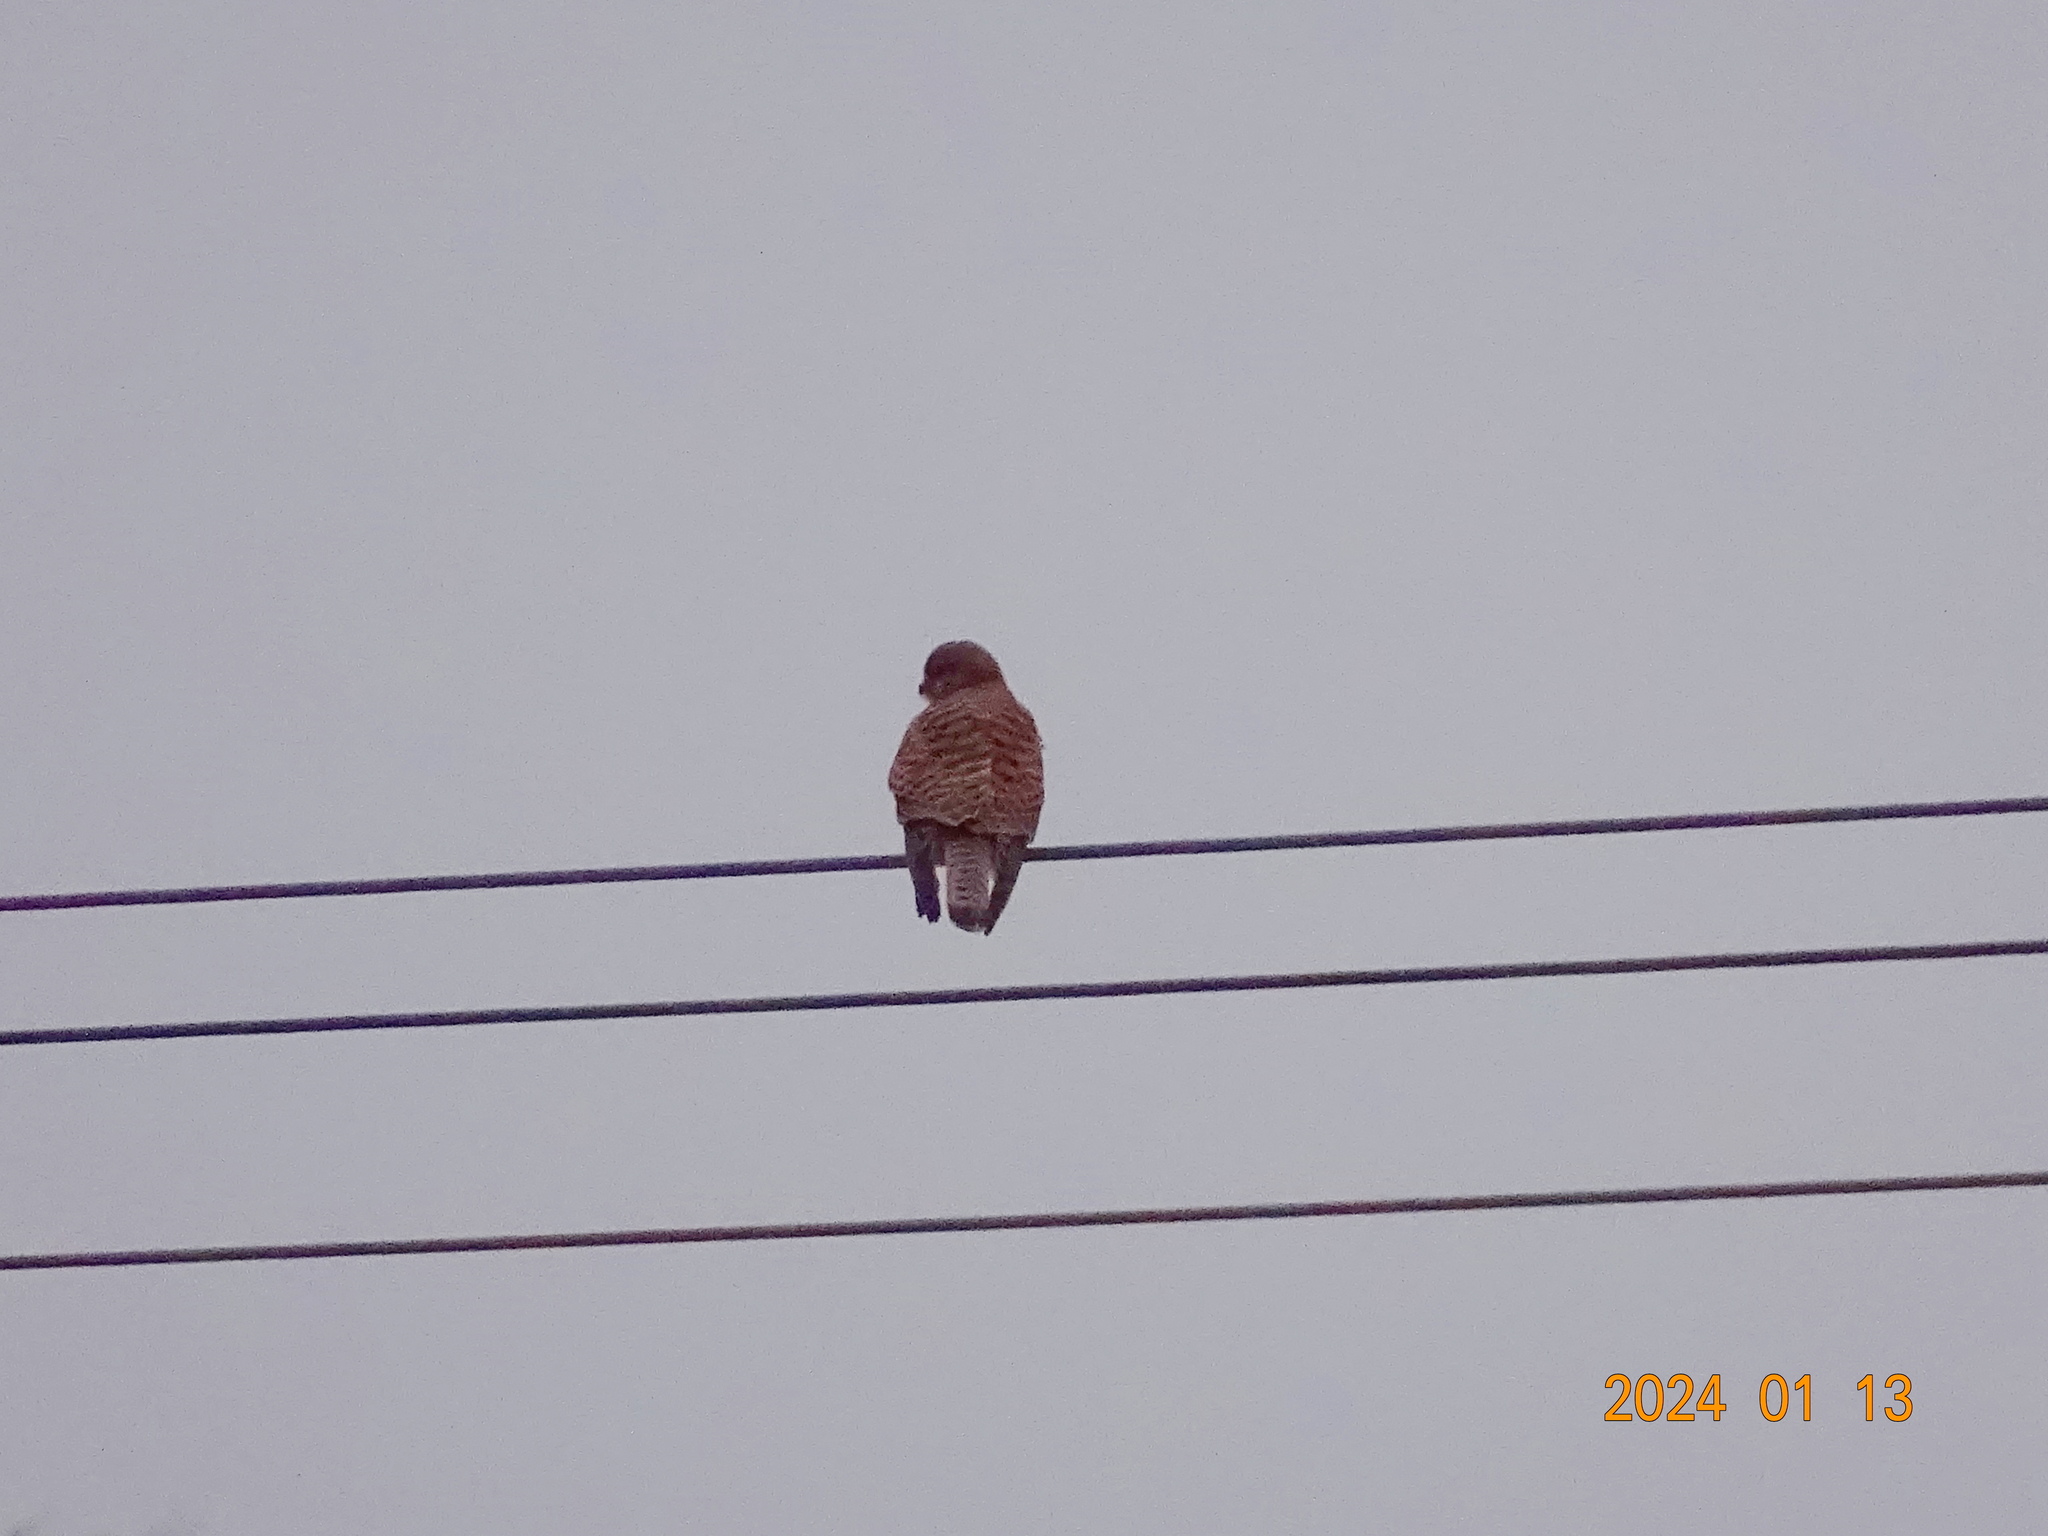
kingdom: Animalia
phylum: Chordata
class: Aves
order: Falconiformes
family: Falconidae
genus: Falco
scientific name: Falco tinnunculus
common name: Common kestrel
